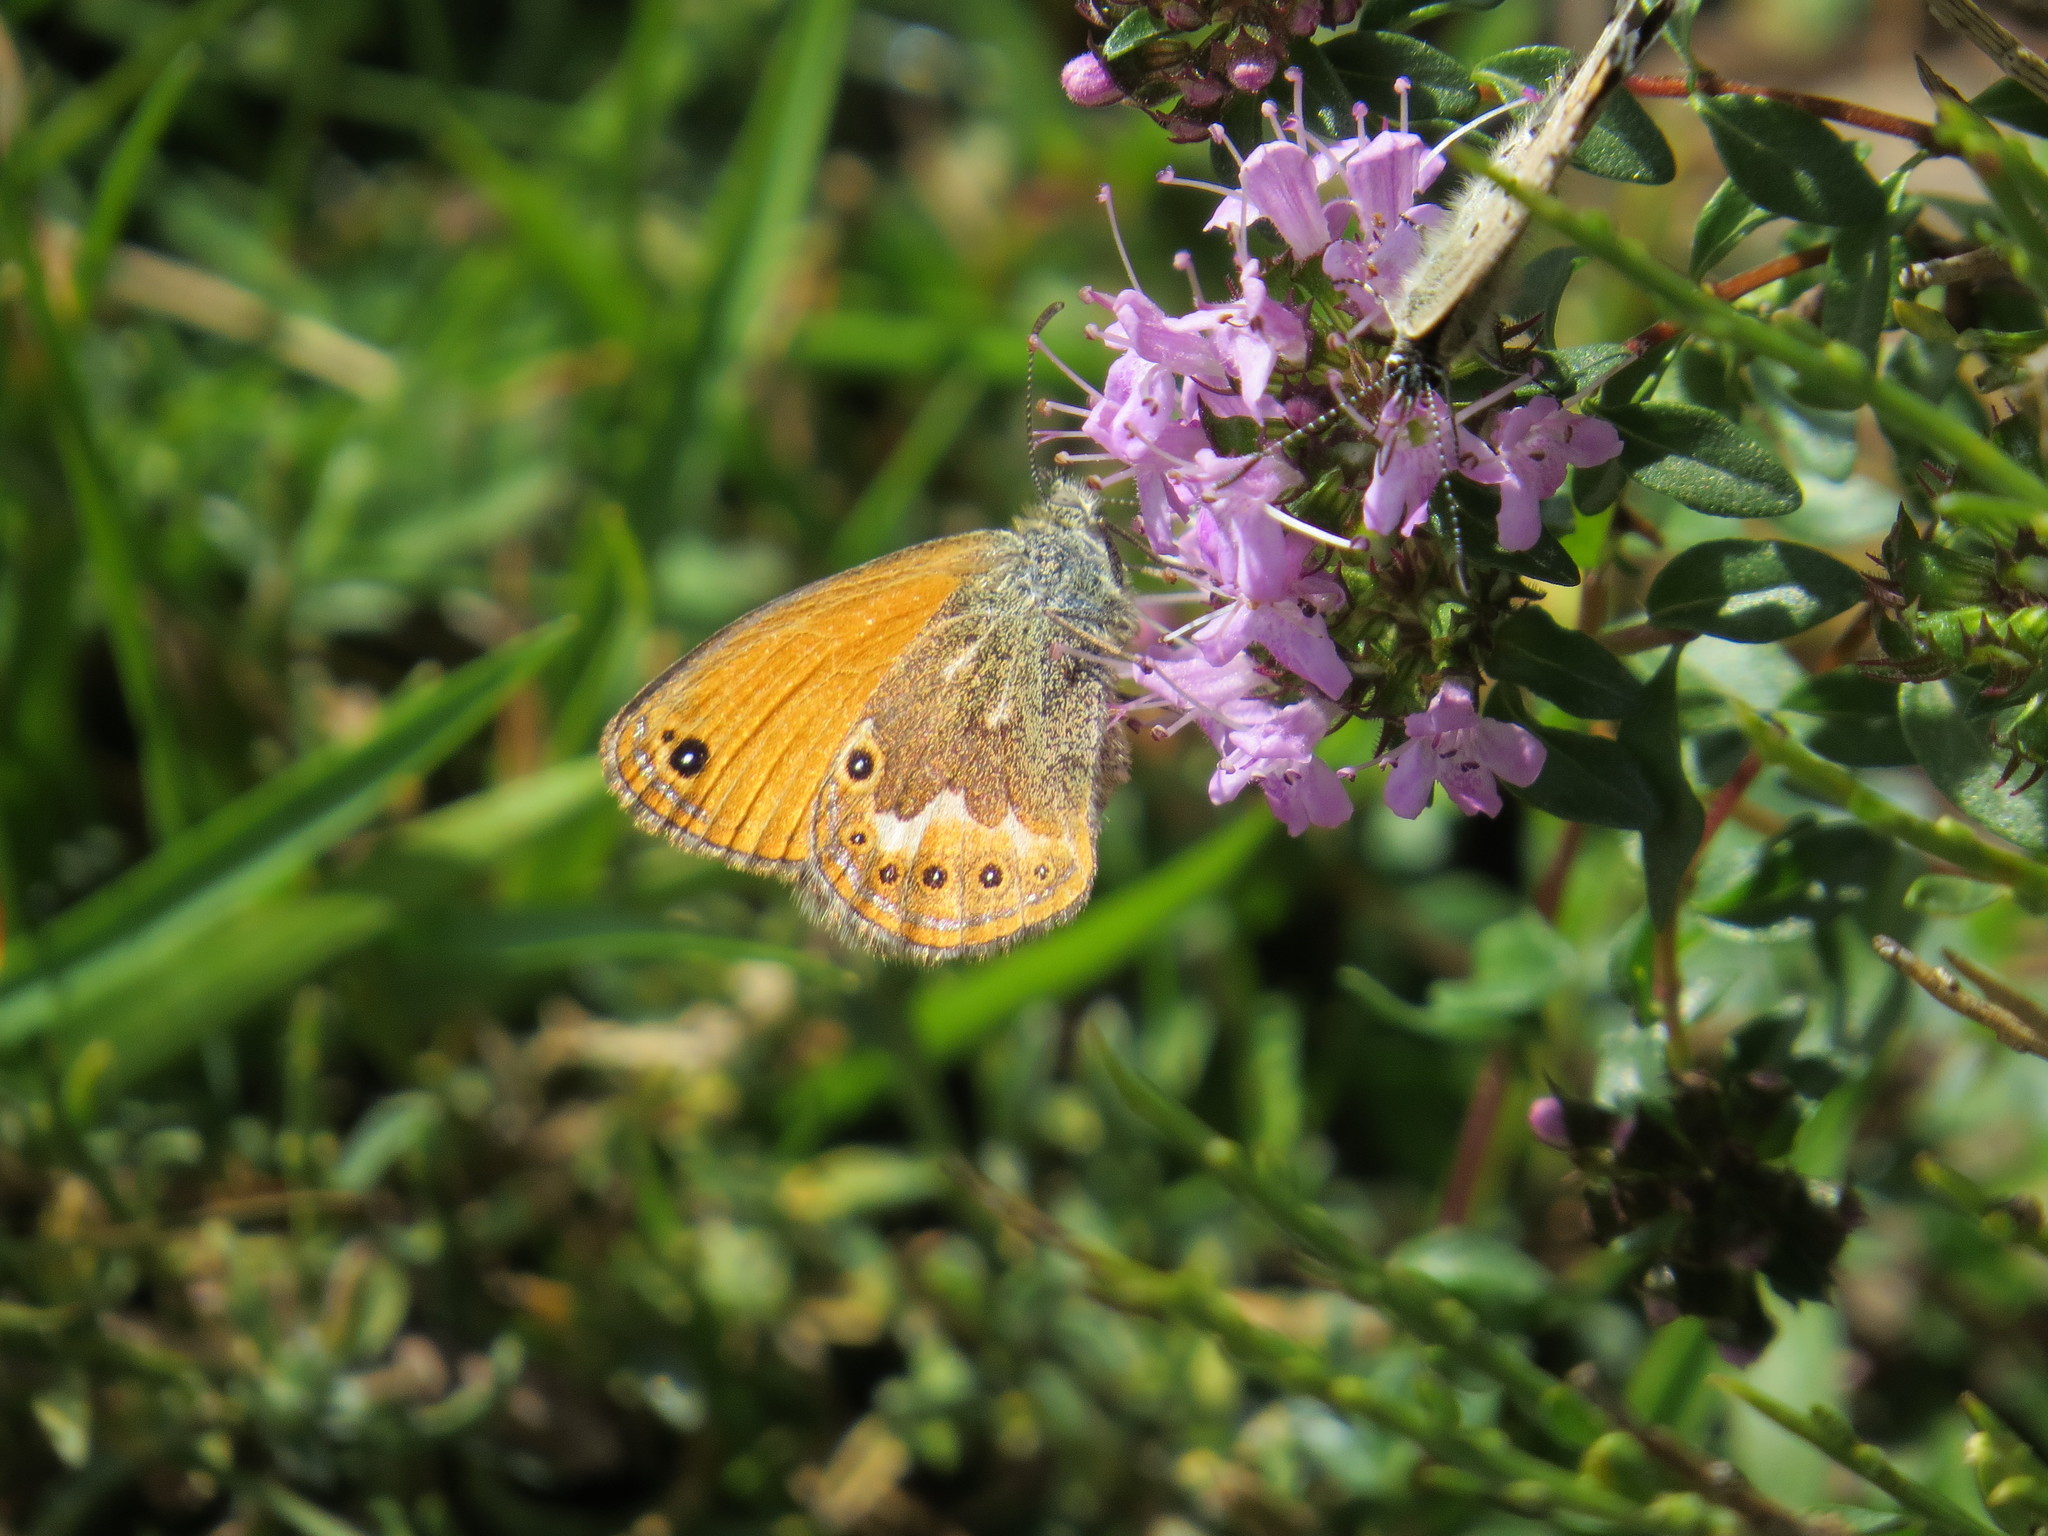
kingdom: Animalia
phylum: Arthropoda
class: Insecta
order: Lepidoptera
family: Nymphalidae
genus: Coenonympha
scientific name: Coenonympha corinna
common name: Corsican heath
